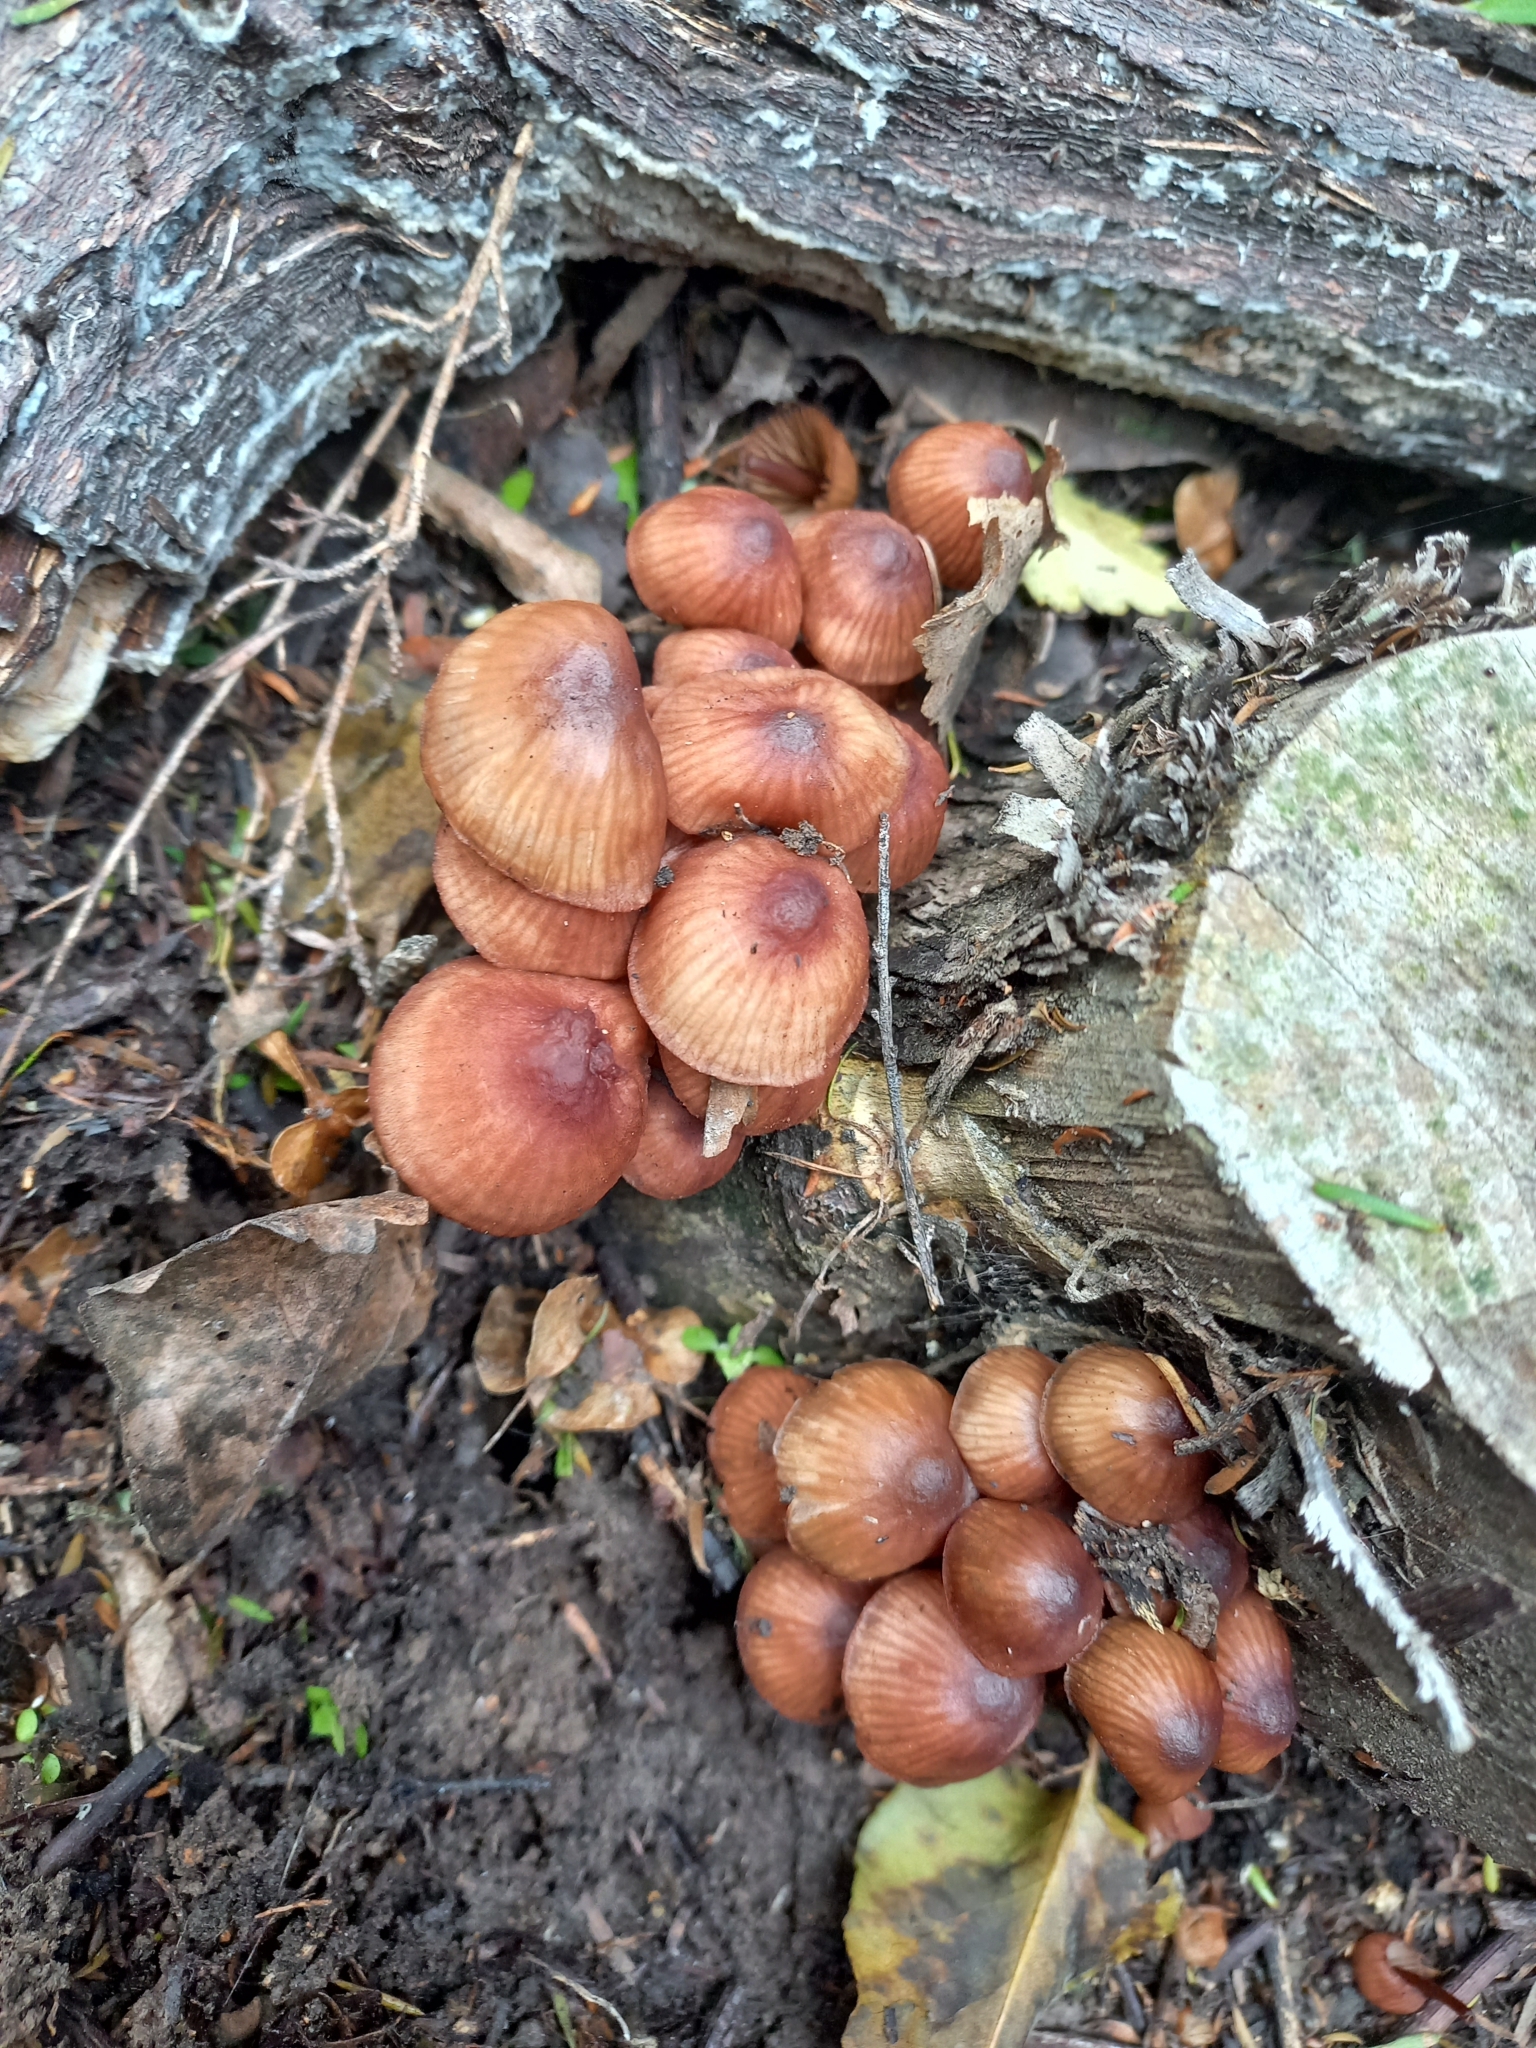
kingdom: Fungi
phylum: Basidiomycota
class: Agaricomycetes
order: Agaricales
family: Mycenaceae
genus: Mycena
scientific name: Mycena mariae
